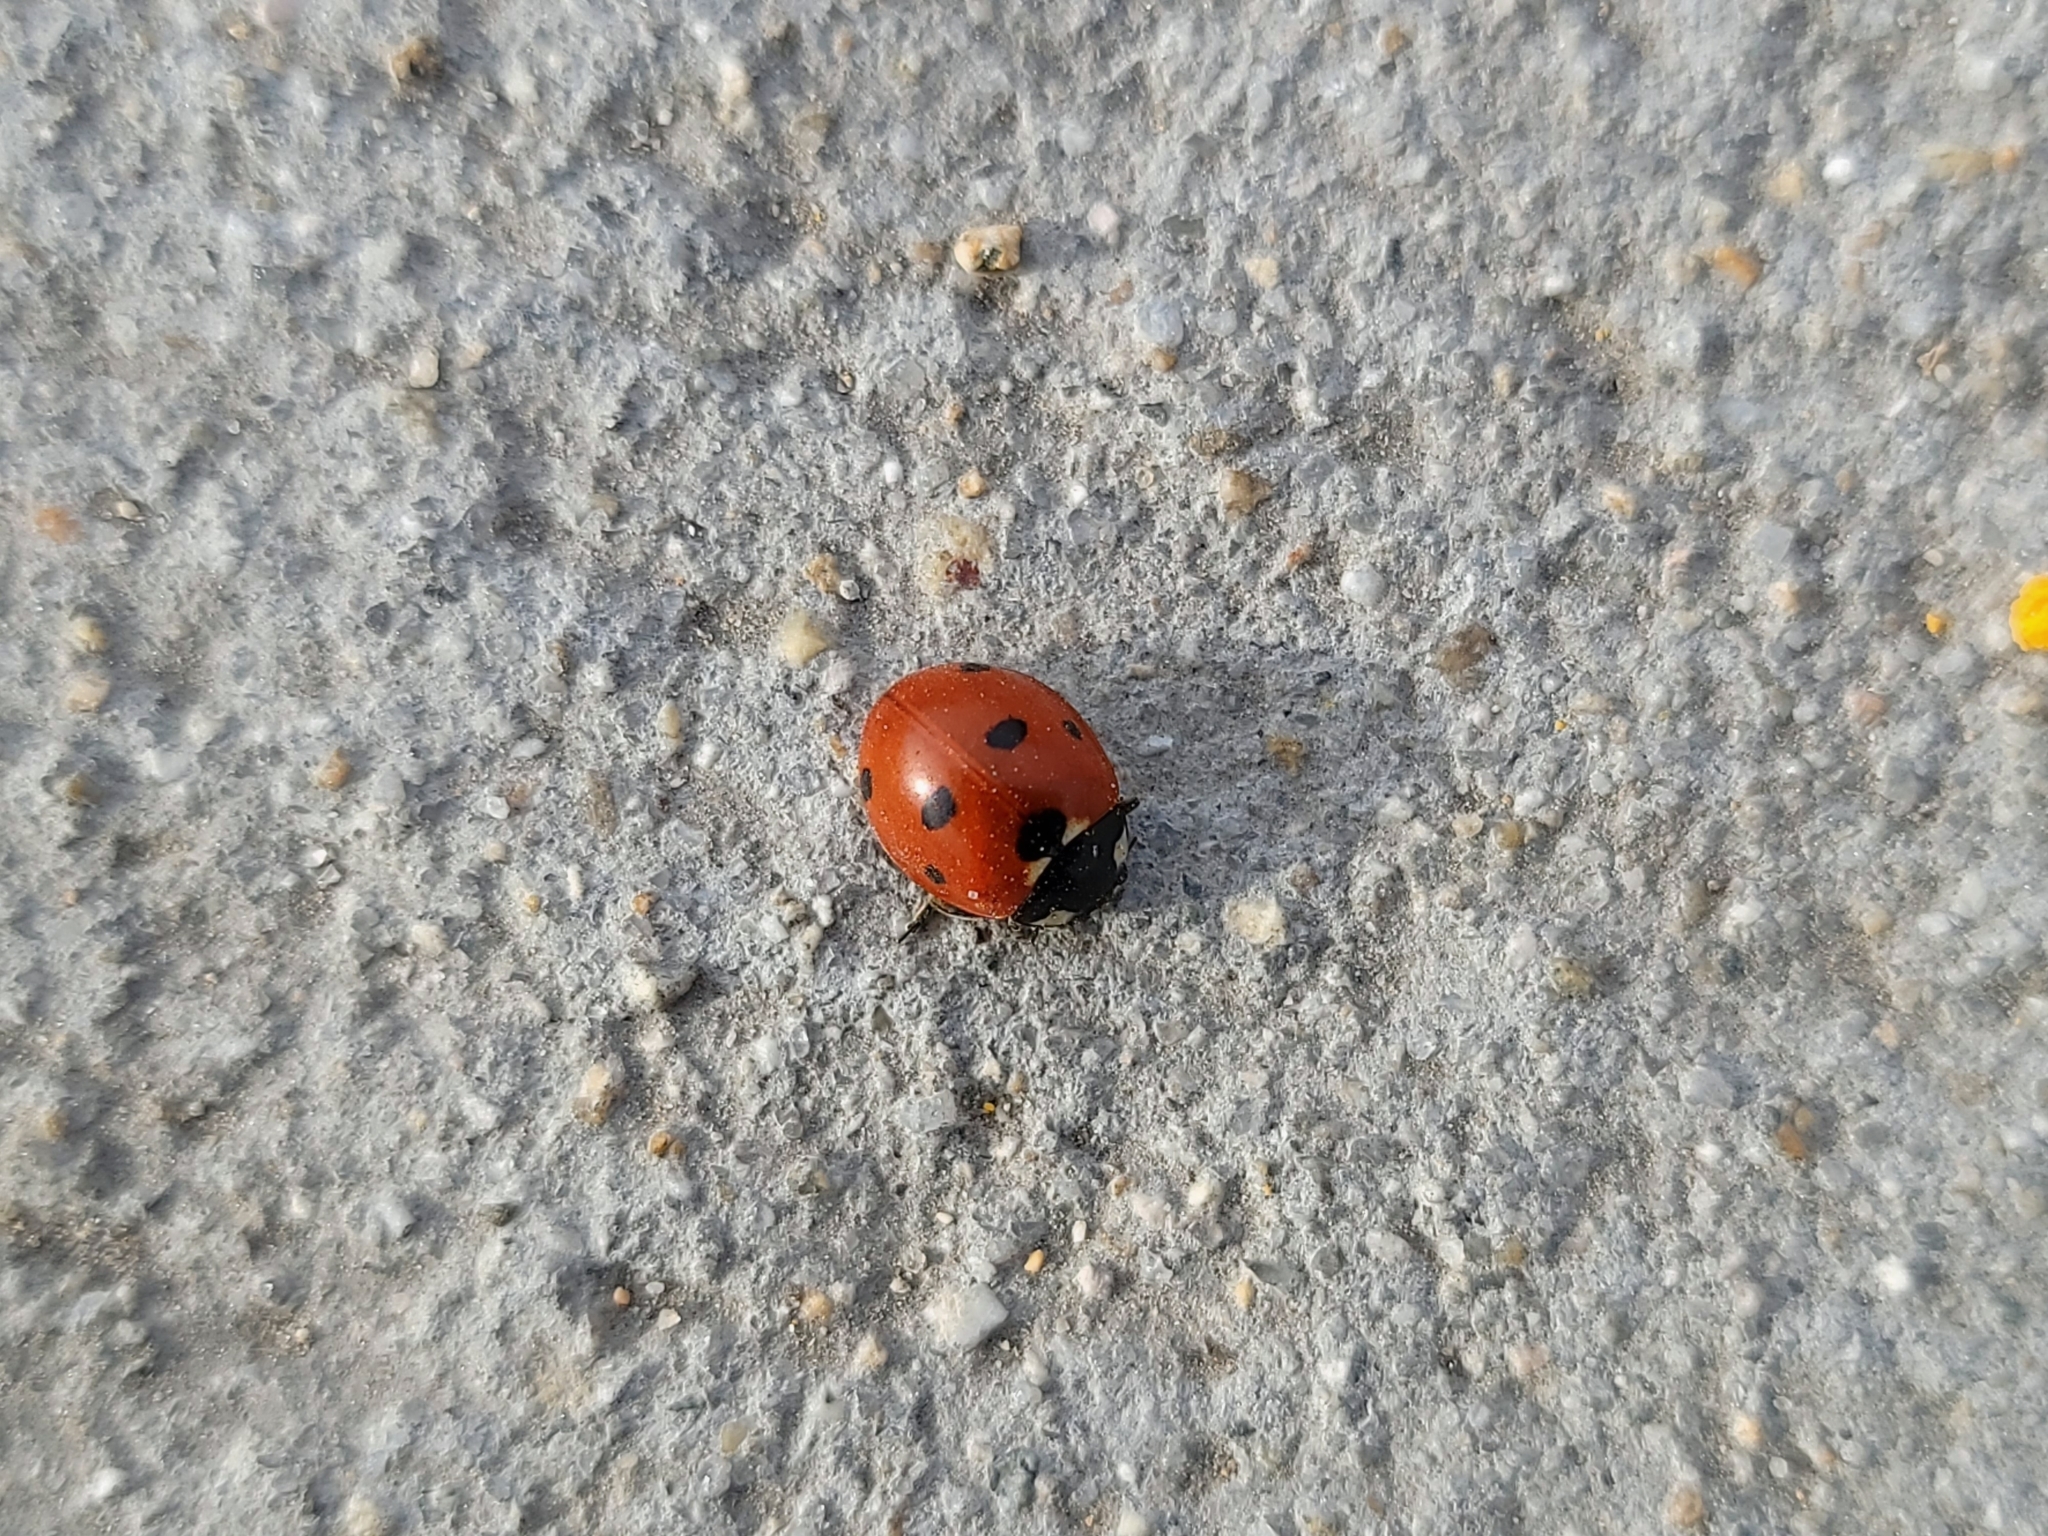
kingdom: Animalia
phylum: Arthropoda
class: Insecta
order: Coleoptera
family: Coccinellidae
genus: Coccinella
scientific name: Coccinella septempunctata
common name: Sevenspotted lady beetle
